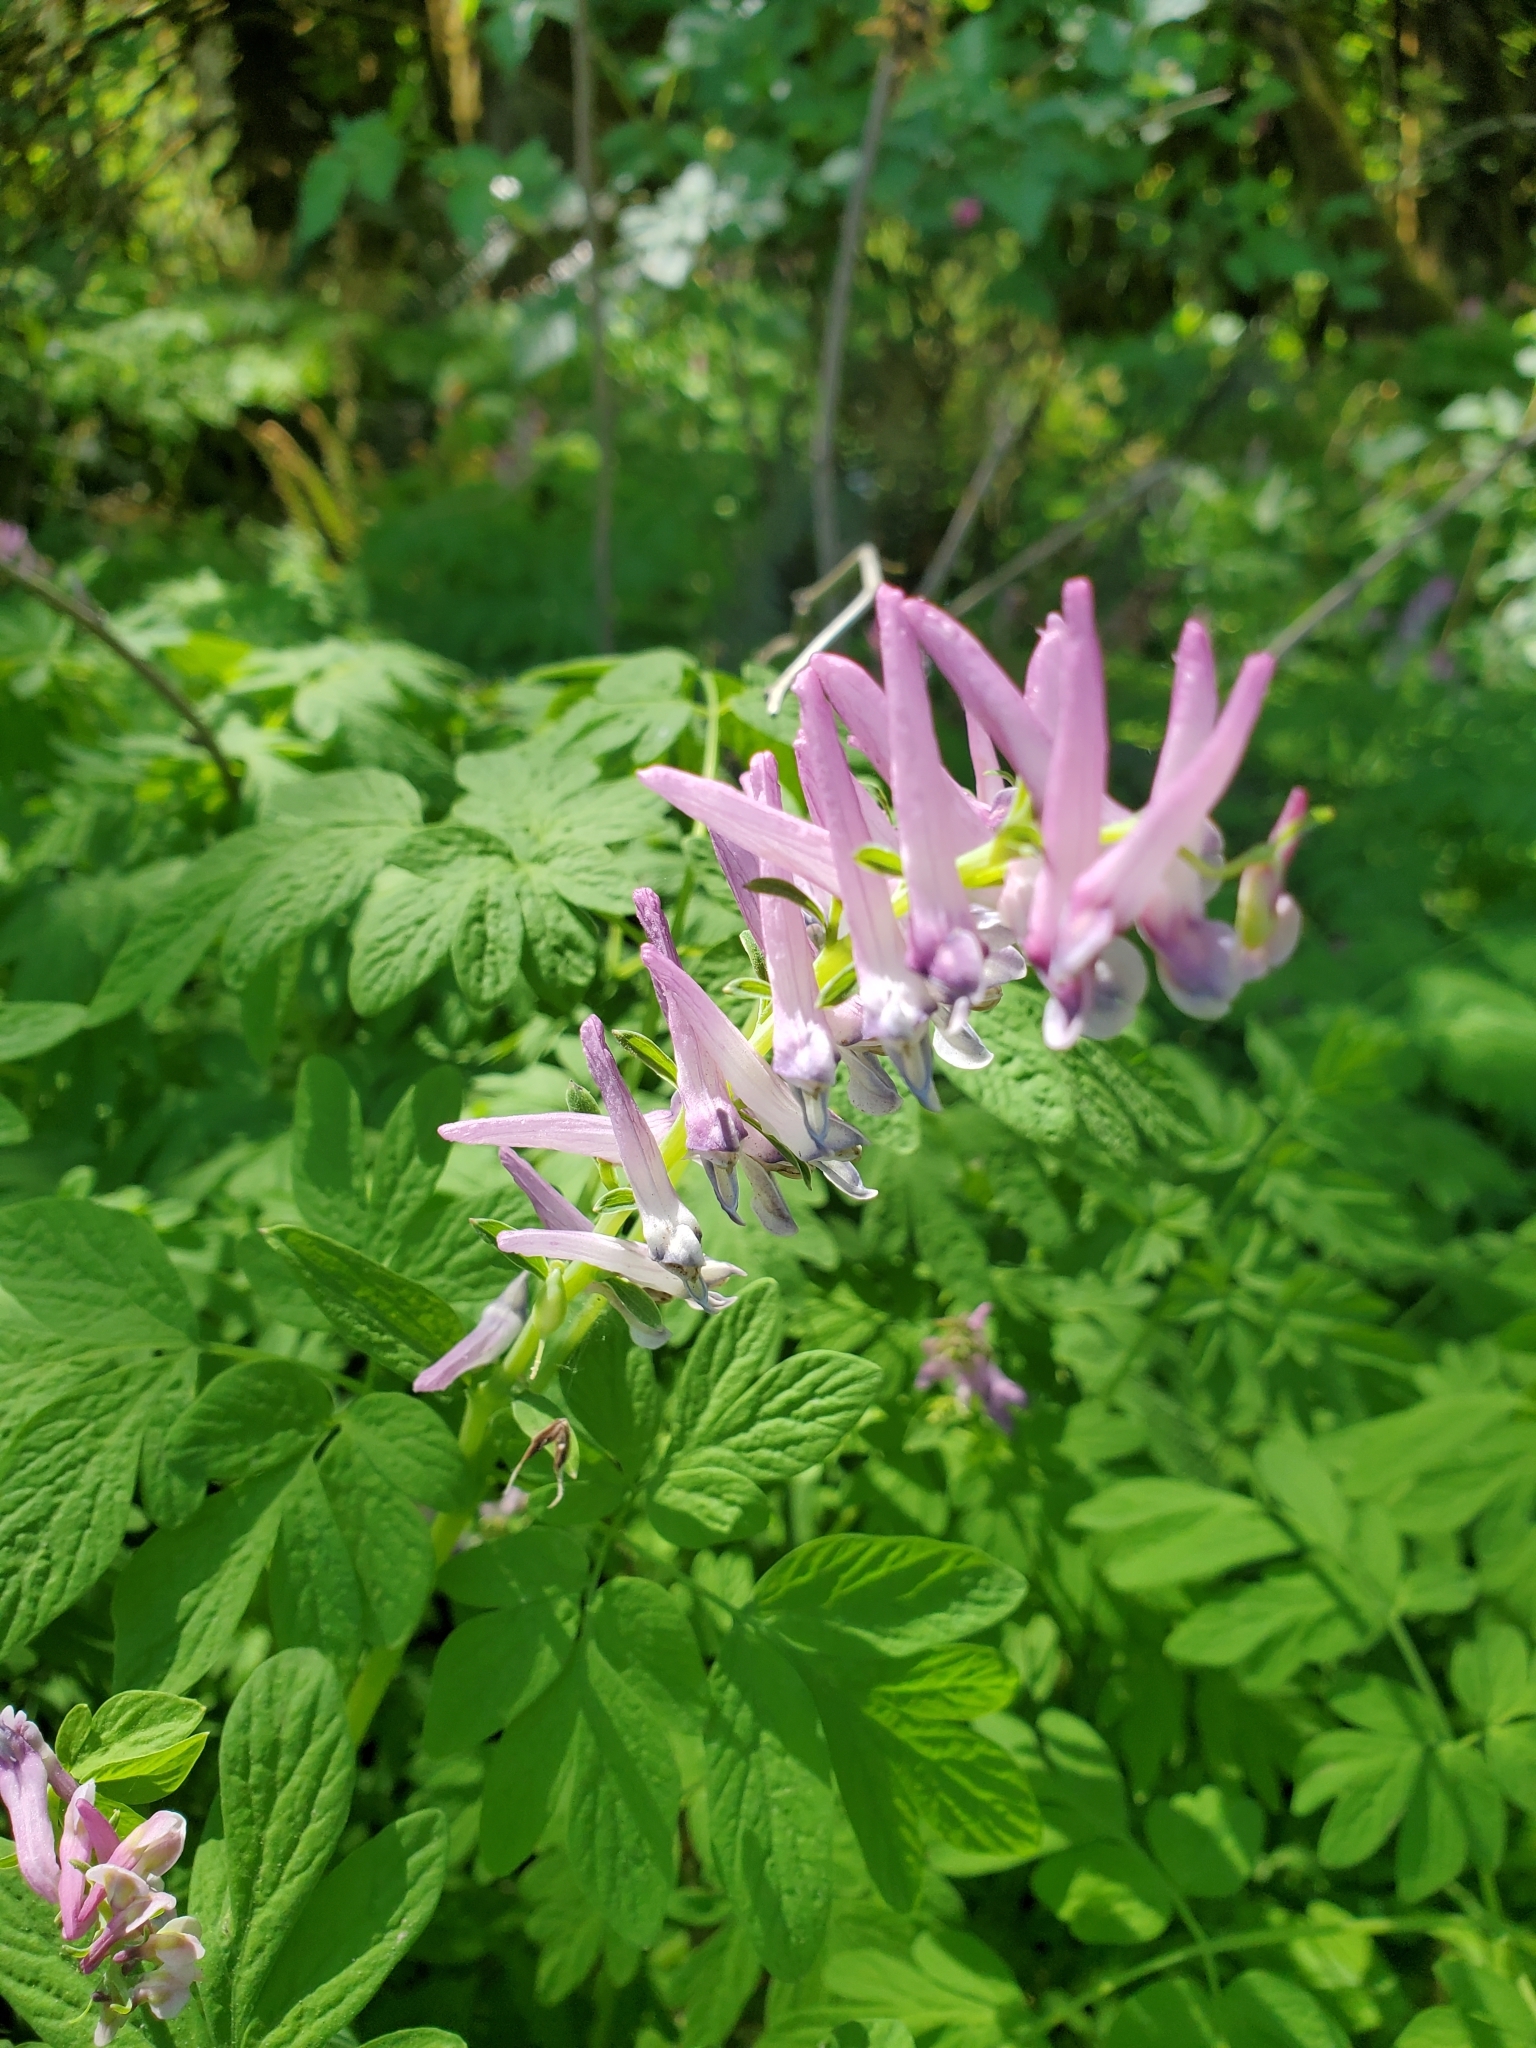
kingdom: Plantae
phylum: Tracheophyta
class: Magnoliopsida
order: Ranunculales
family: Papaveraceae
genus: Corydalis
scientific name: Corydalis scouleri
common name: Scouler's corydalis
